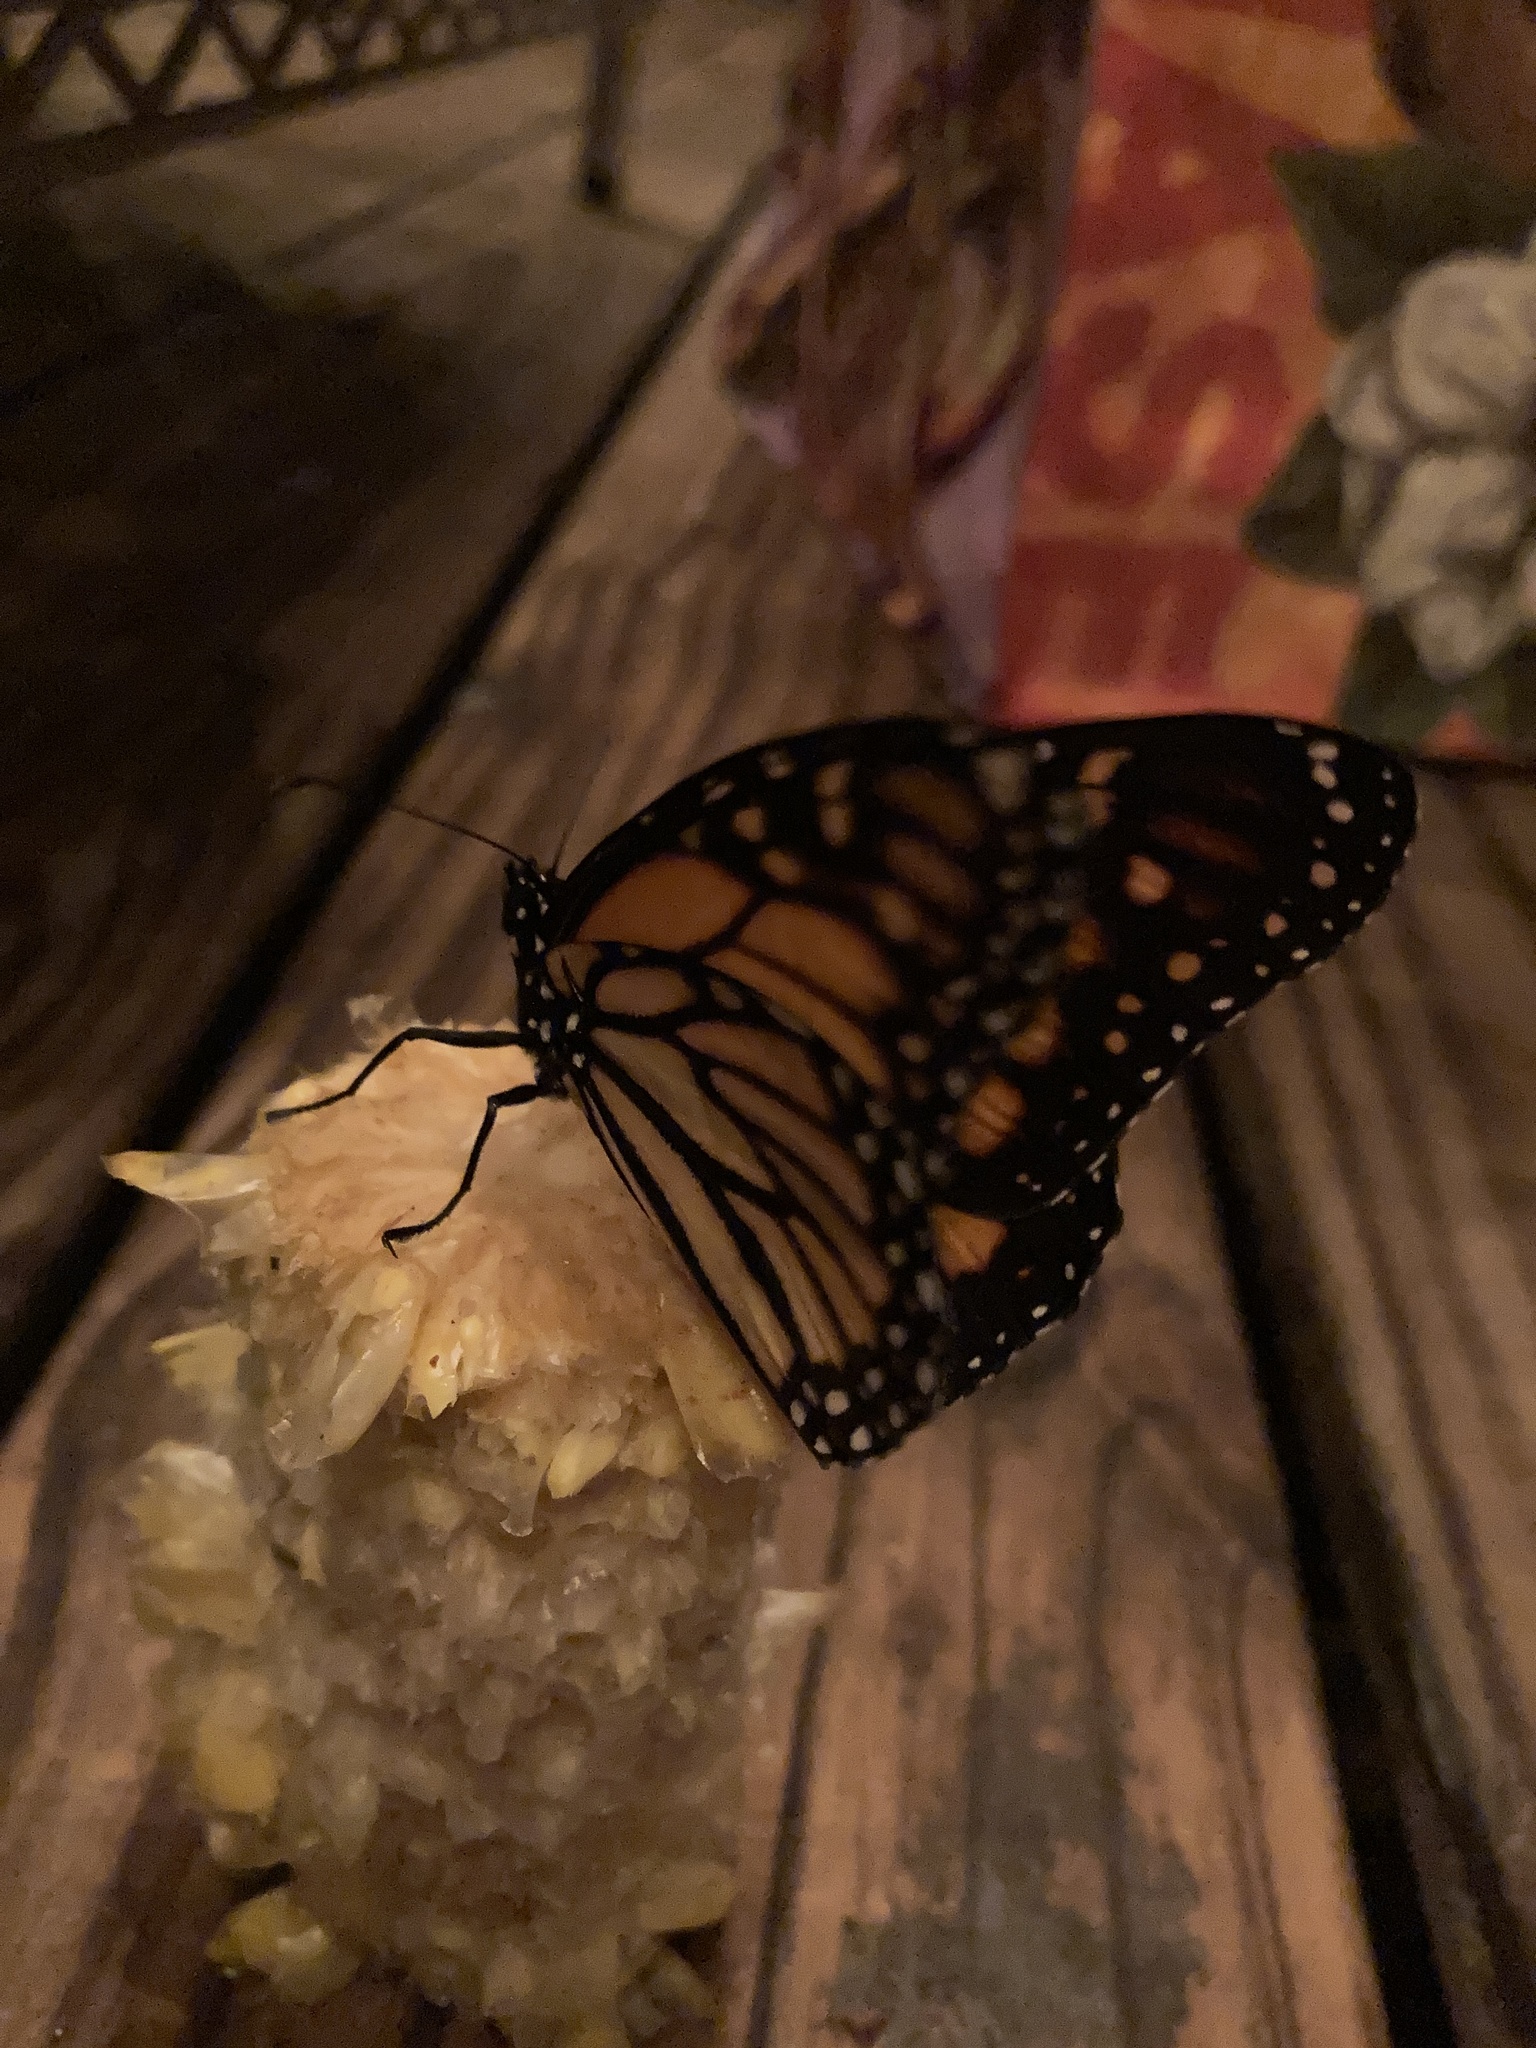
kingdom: Animalia
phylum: Arthropoda
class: Insecta
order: Lepidoptera
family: Nymphalidae
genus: Danaus
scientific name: Danaus plexippus
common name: Monarch
